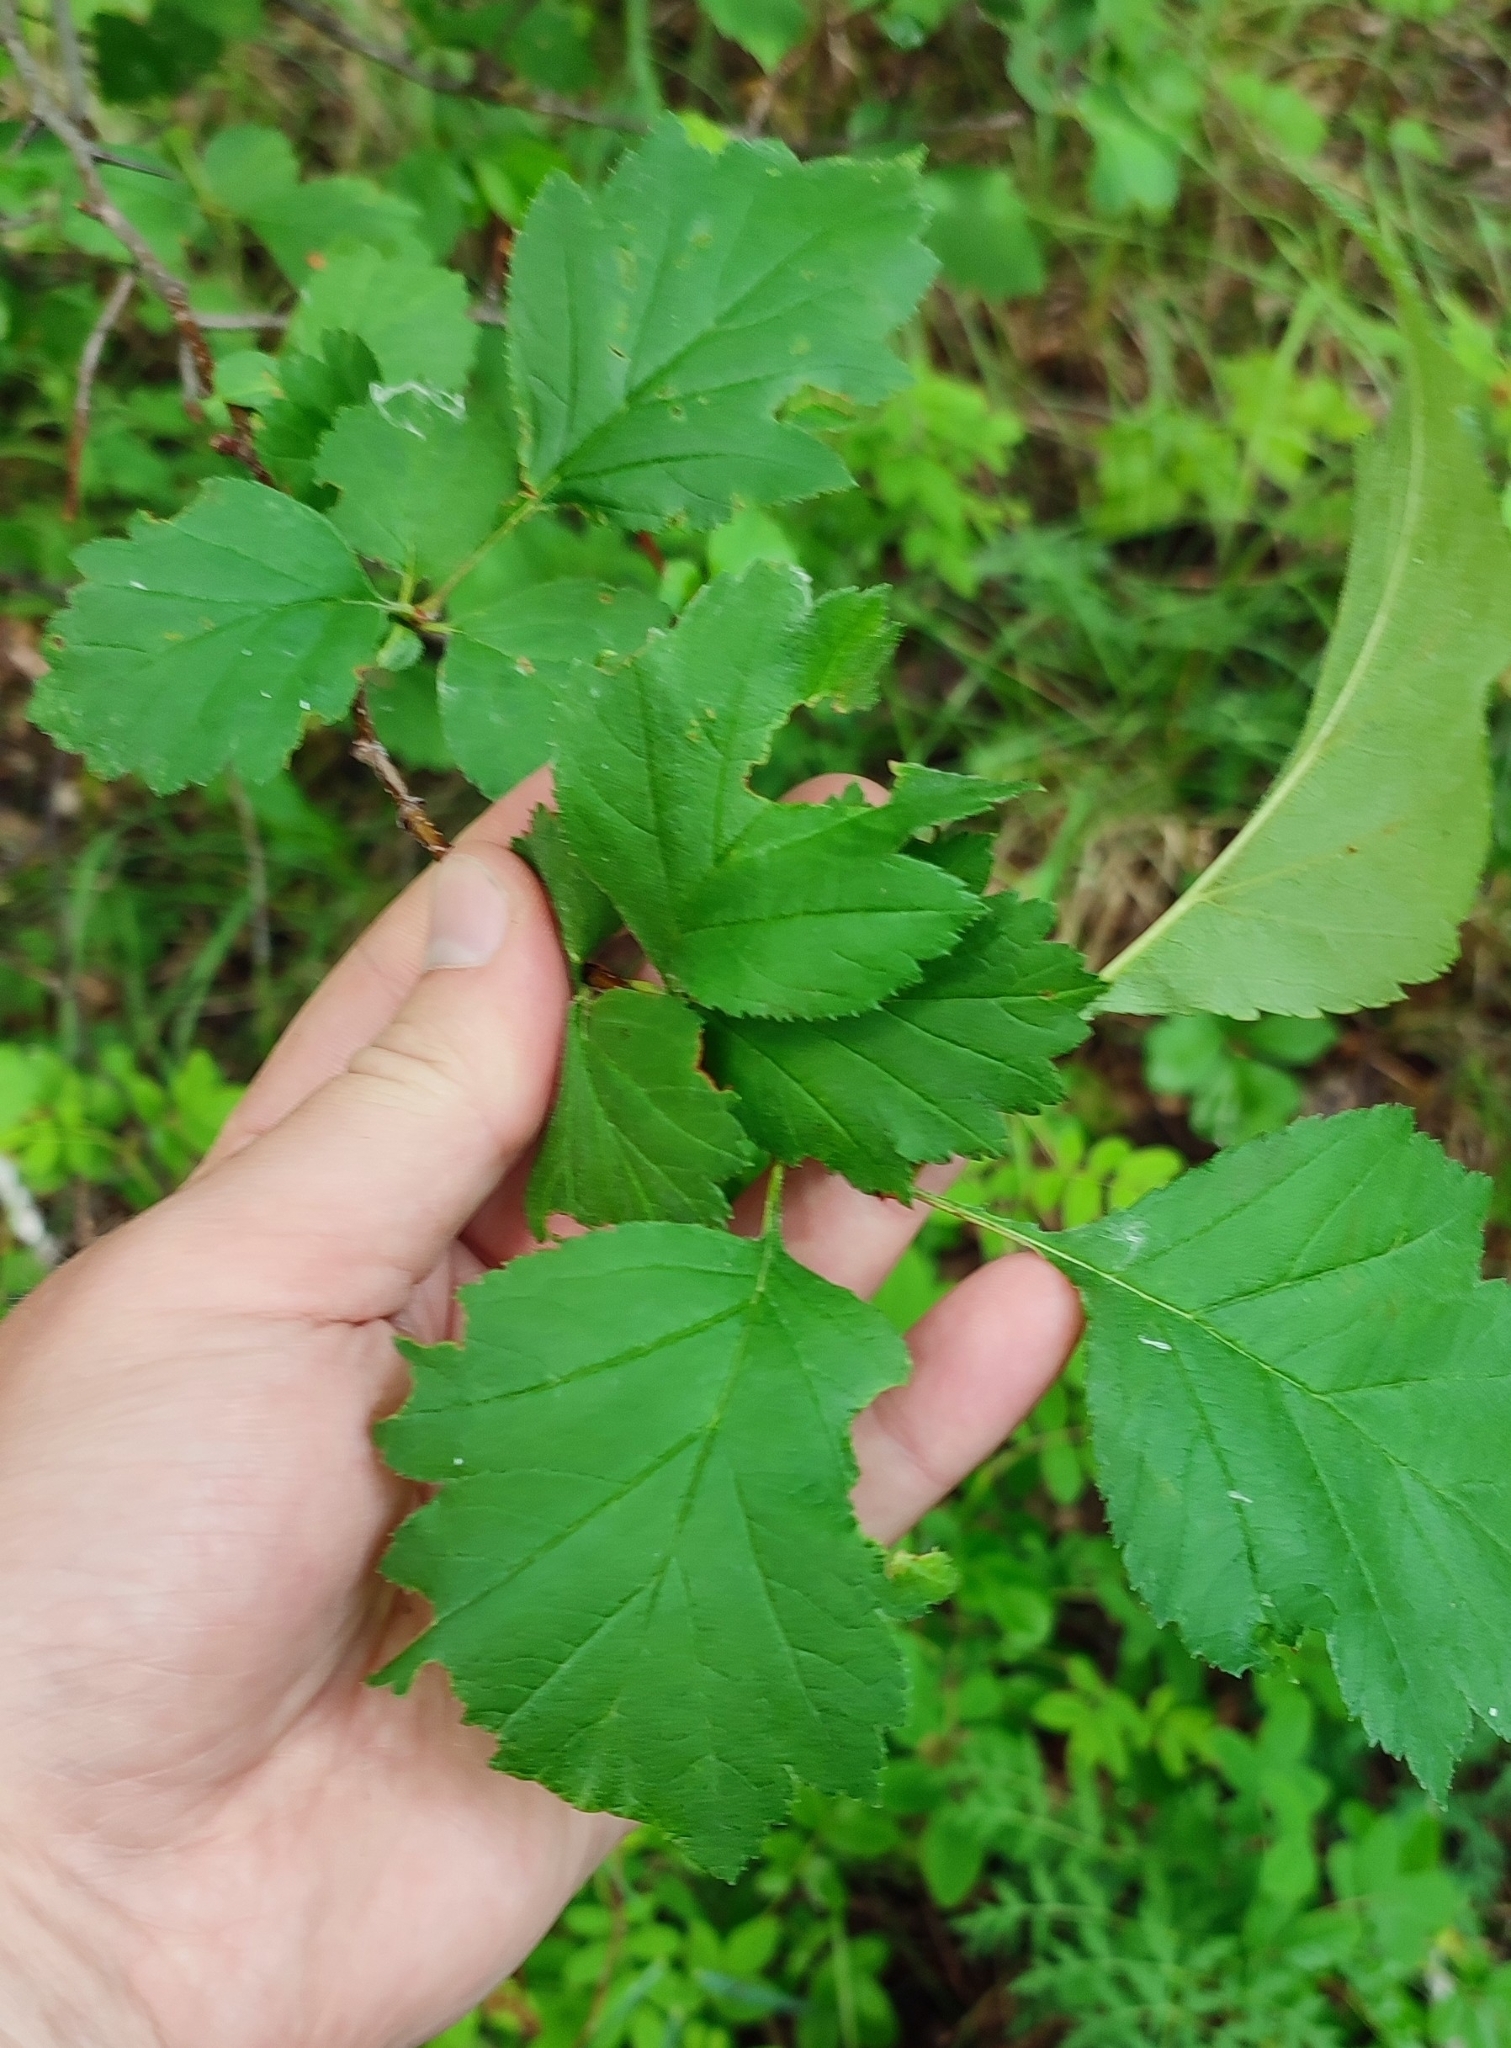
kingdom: Plantae
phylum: Tracheophyta
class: Magnoliopsida
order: Rosales
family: Rosaceae
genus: Crataegus
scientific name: Crataegus sanguinea
